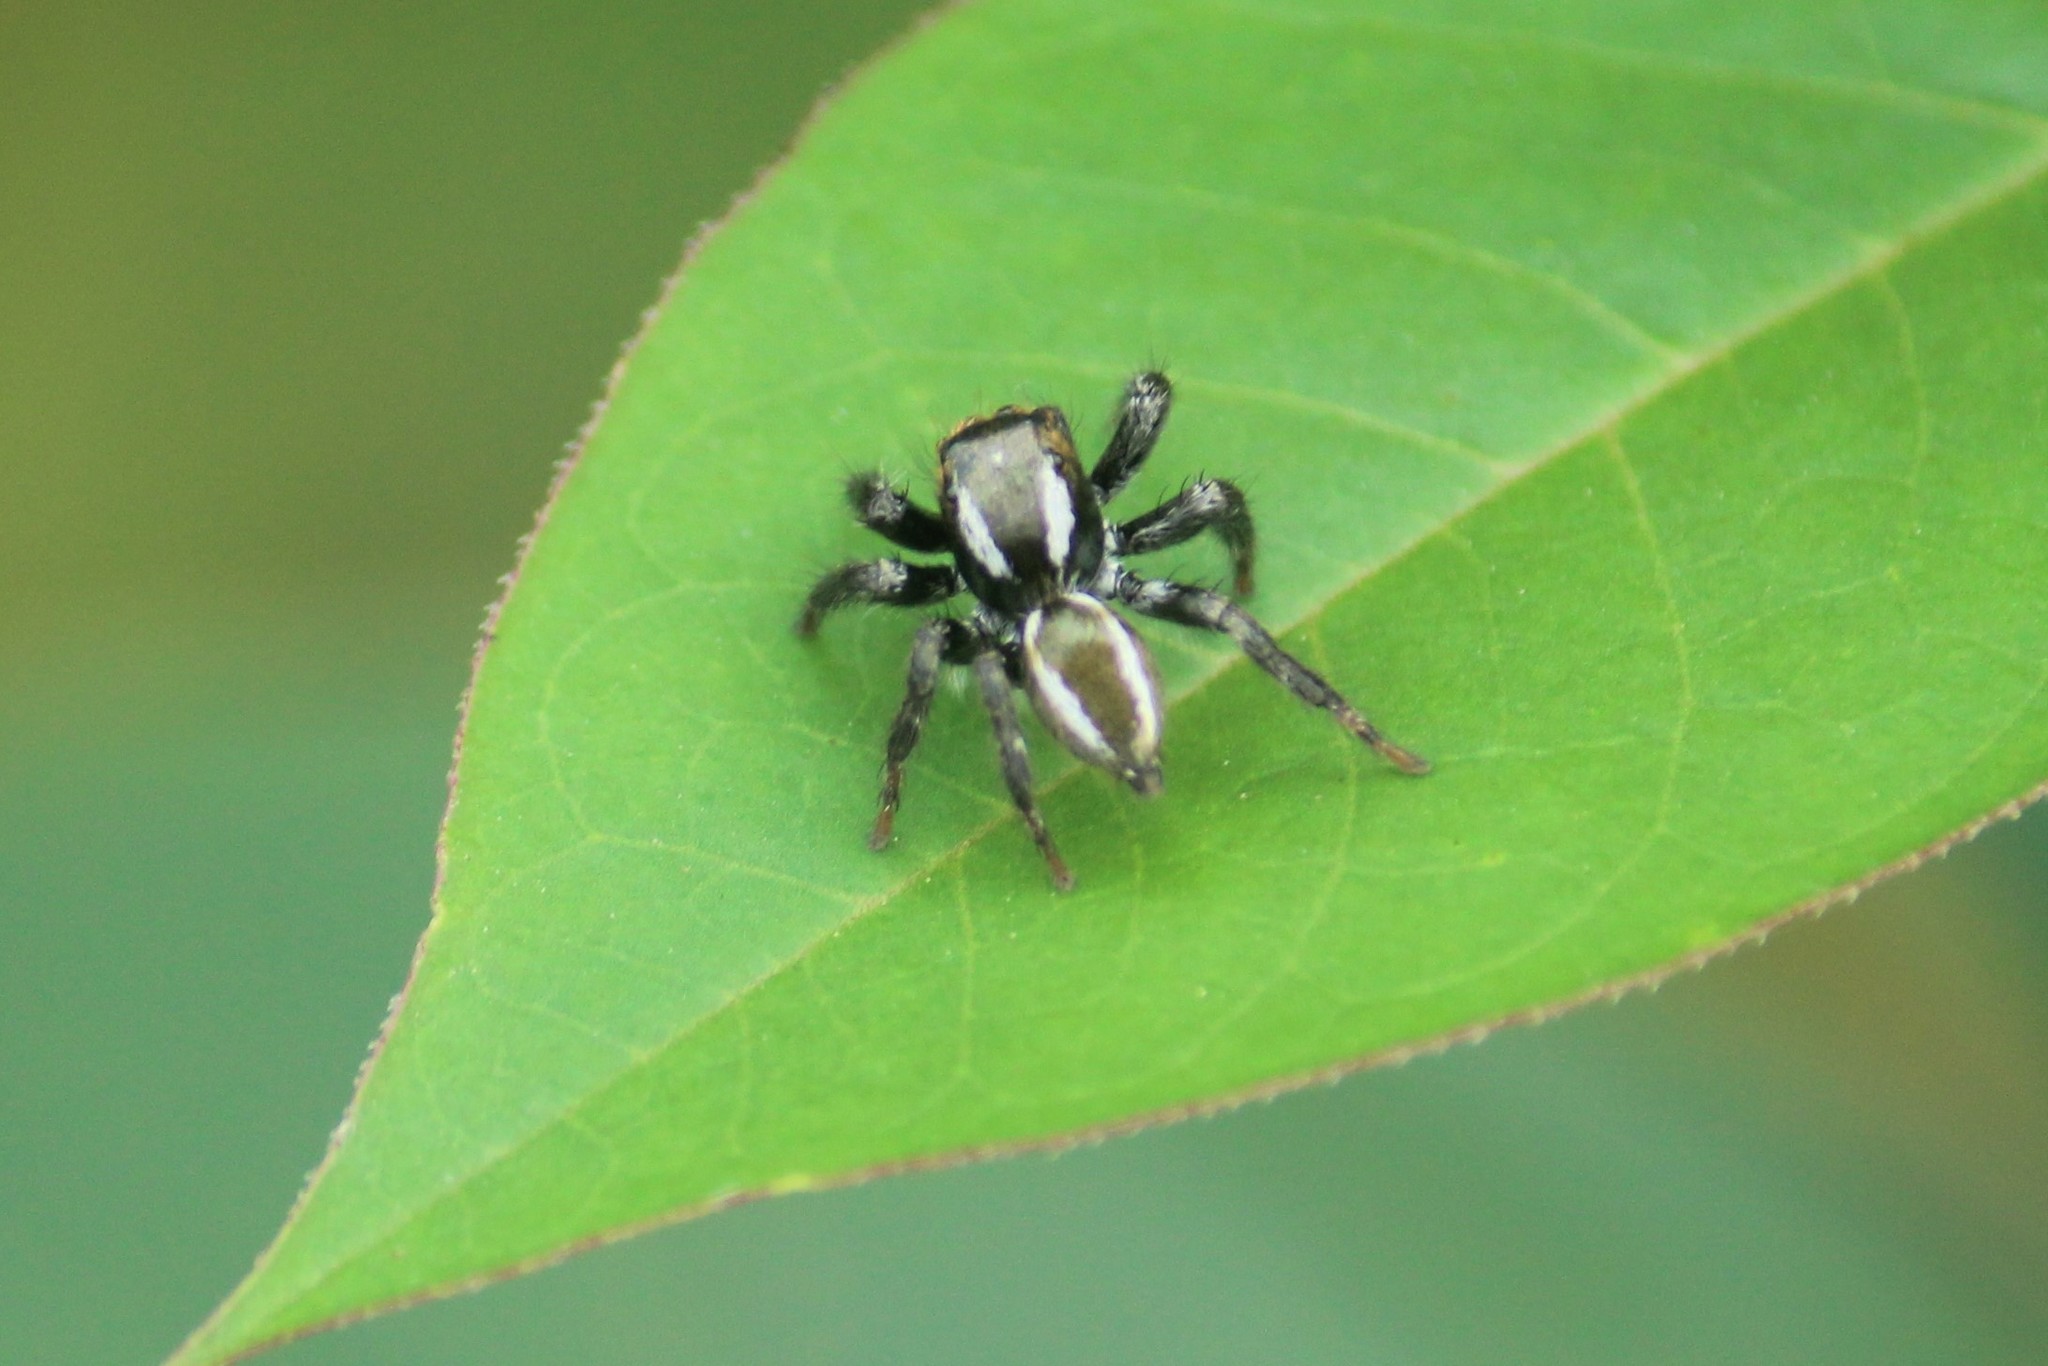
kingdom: Animalia
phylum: Arthropoda
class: Arachnida
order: Araneae
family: Salticidae
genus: Carrhotus
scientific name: Carrhotus viduus
